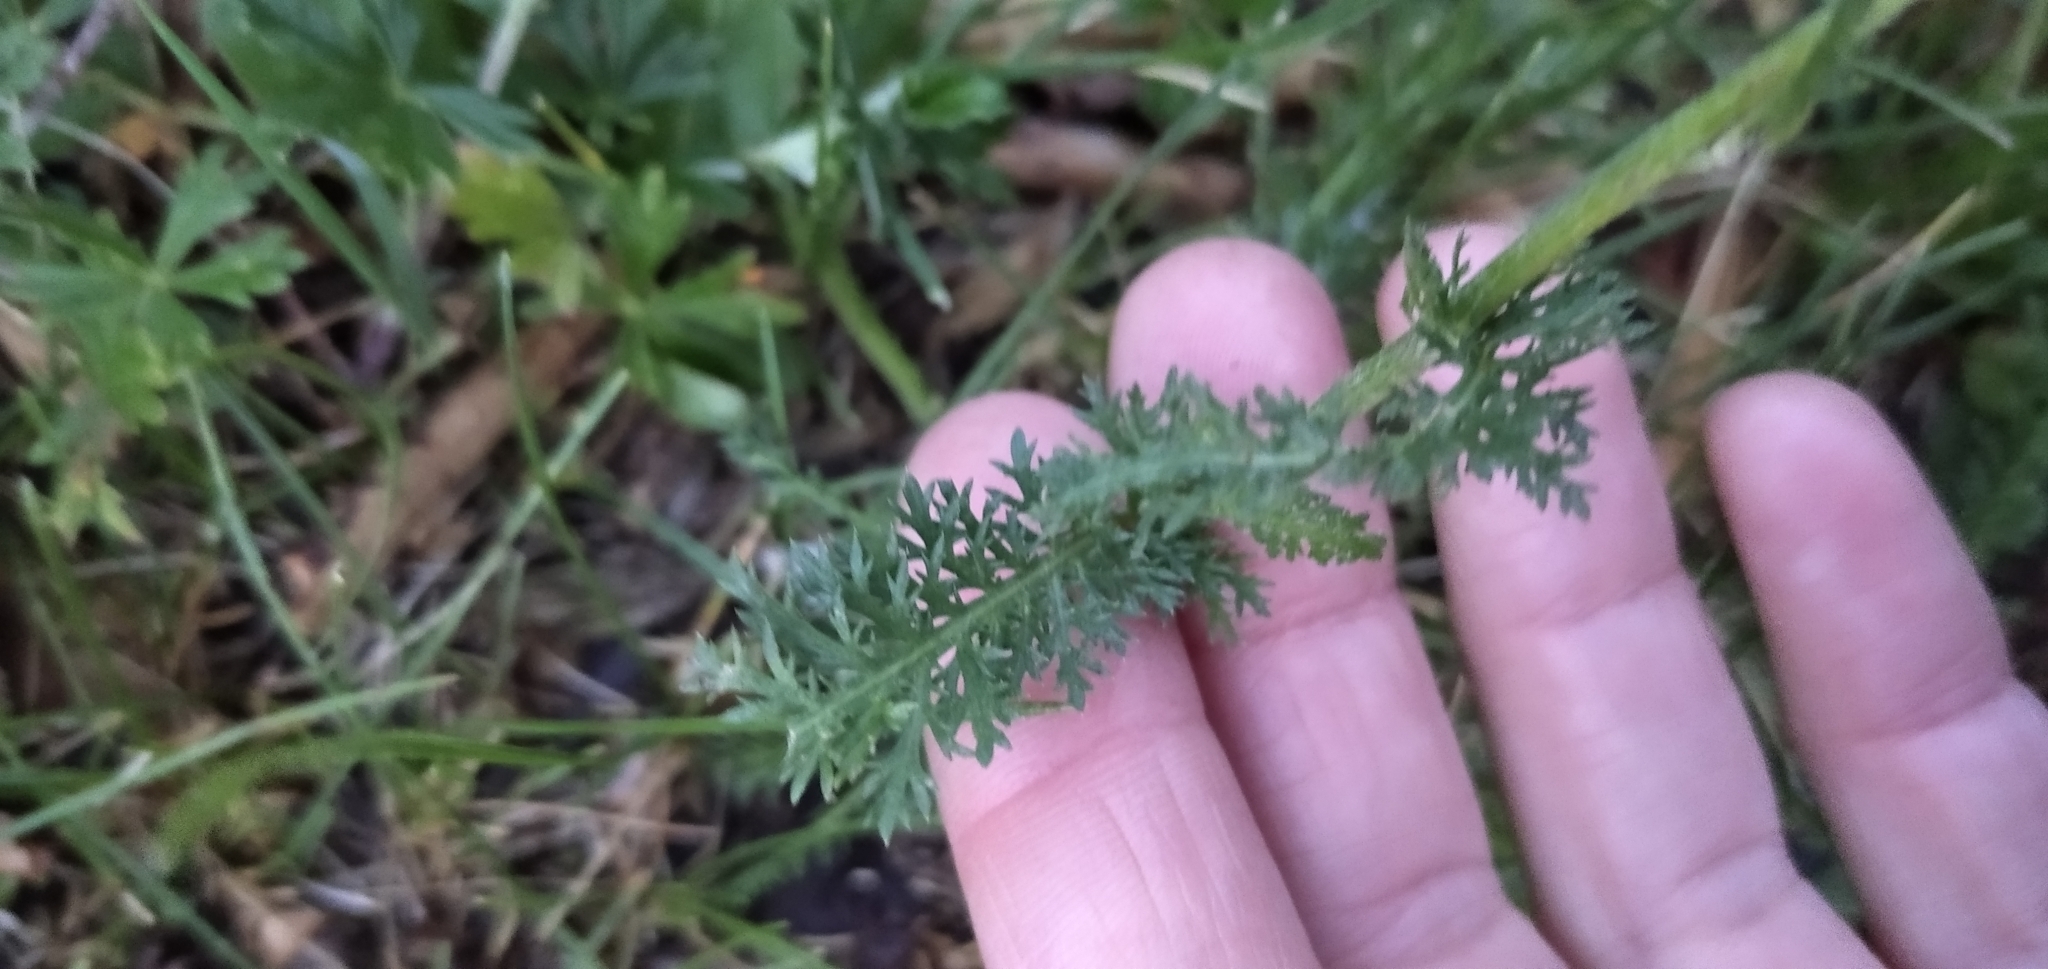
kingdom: Plantae
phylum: Tracheophyta
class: Magnoliopsida
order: Asterales
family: Asteraceae
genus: Achillea
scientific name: Achillea millefolium
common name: Yarrow
